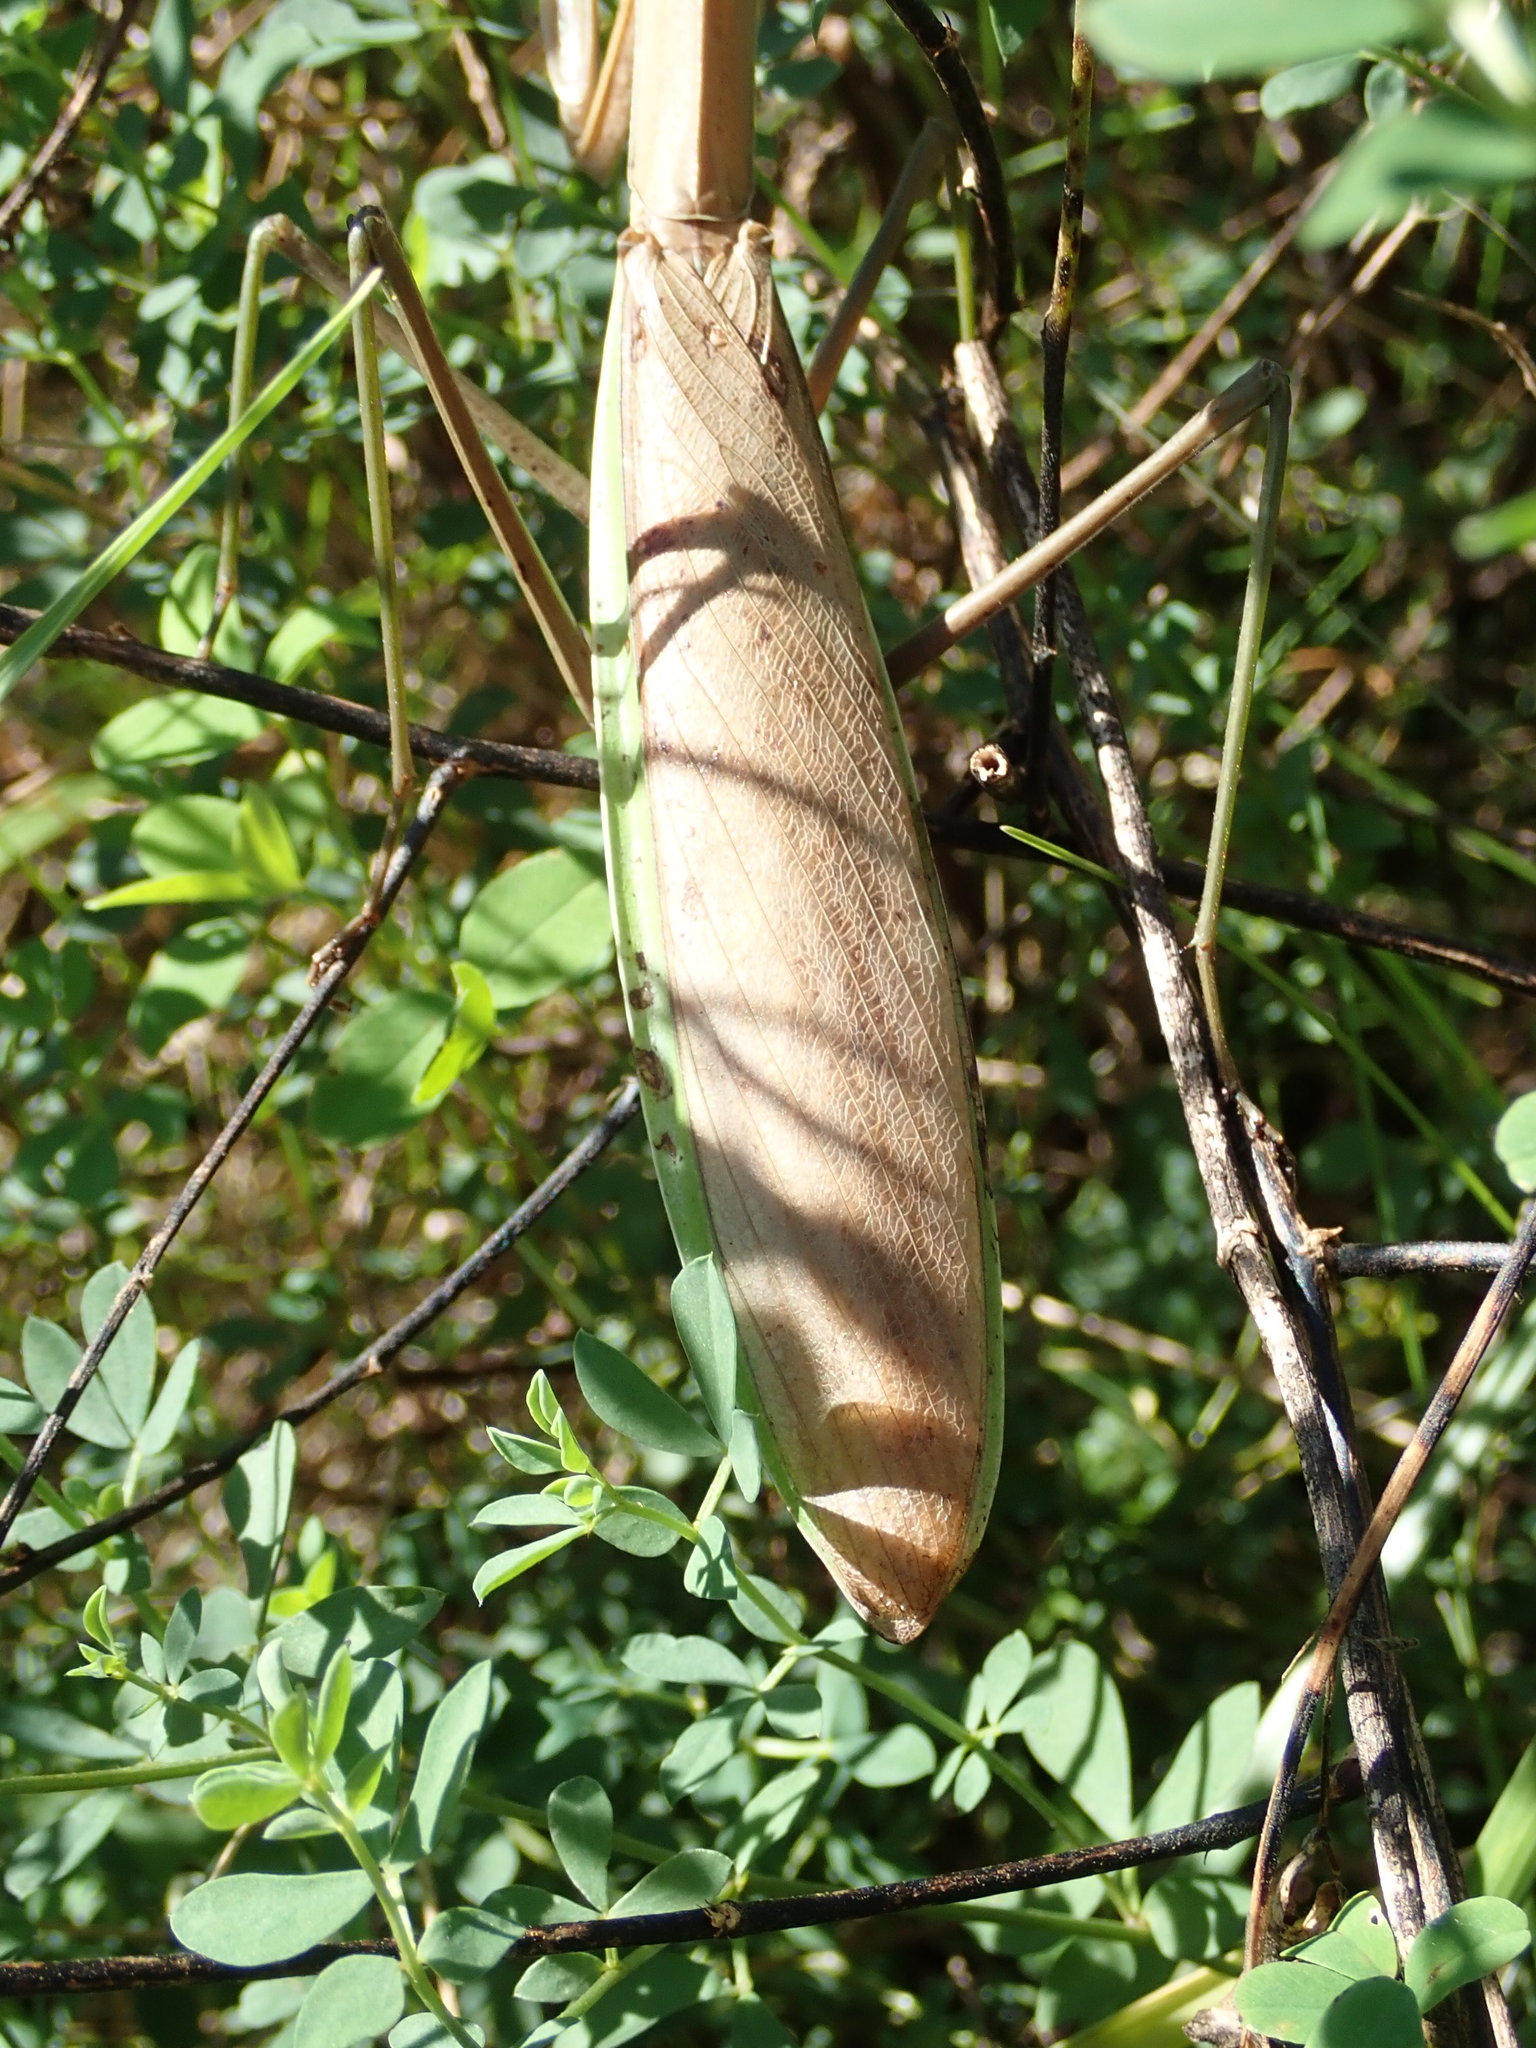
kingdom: Animalia
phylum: Arthropoda
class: Insecta
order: Mantodea
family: Mantidae
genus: Tenodera
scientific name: Tenodera sinensis
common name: Chinese mantis
